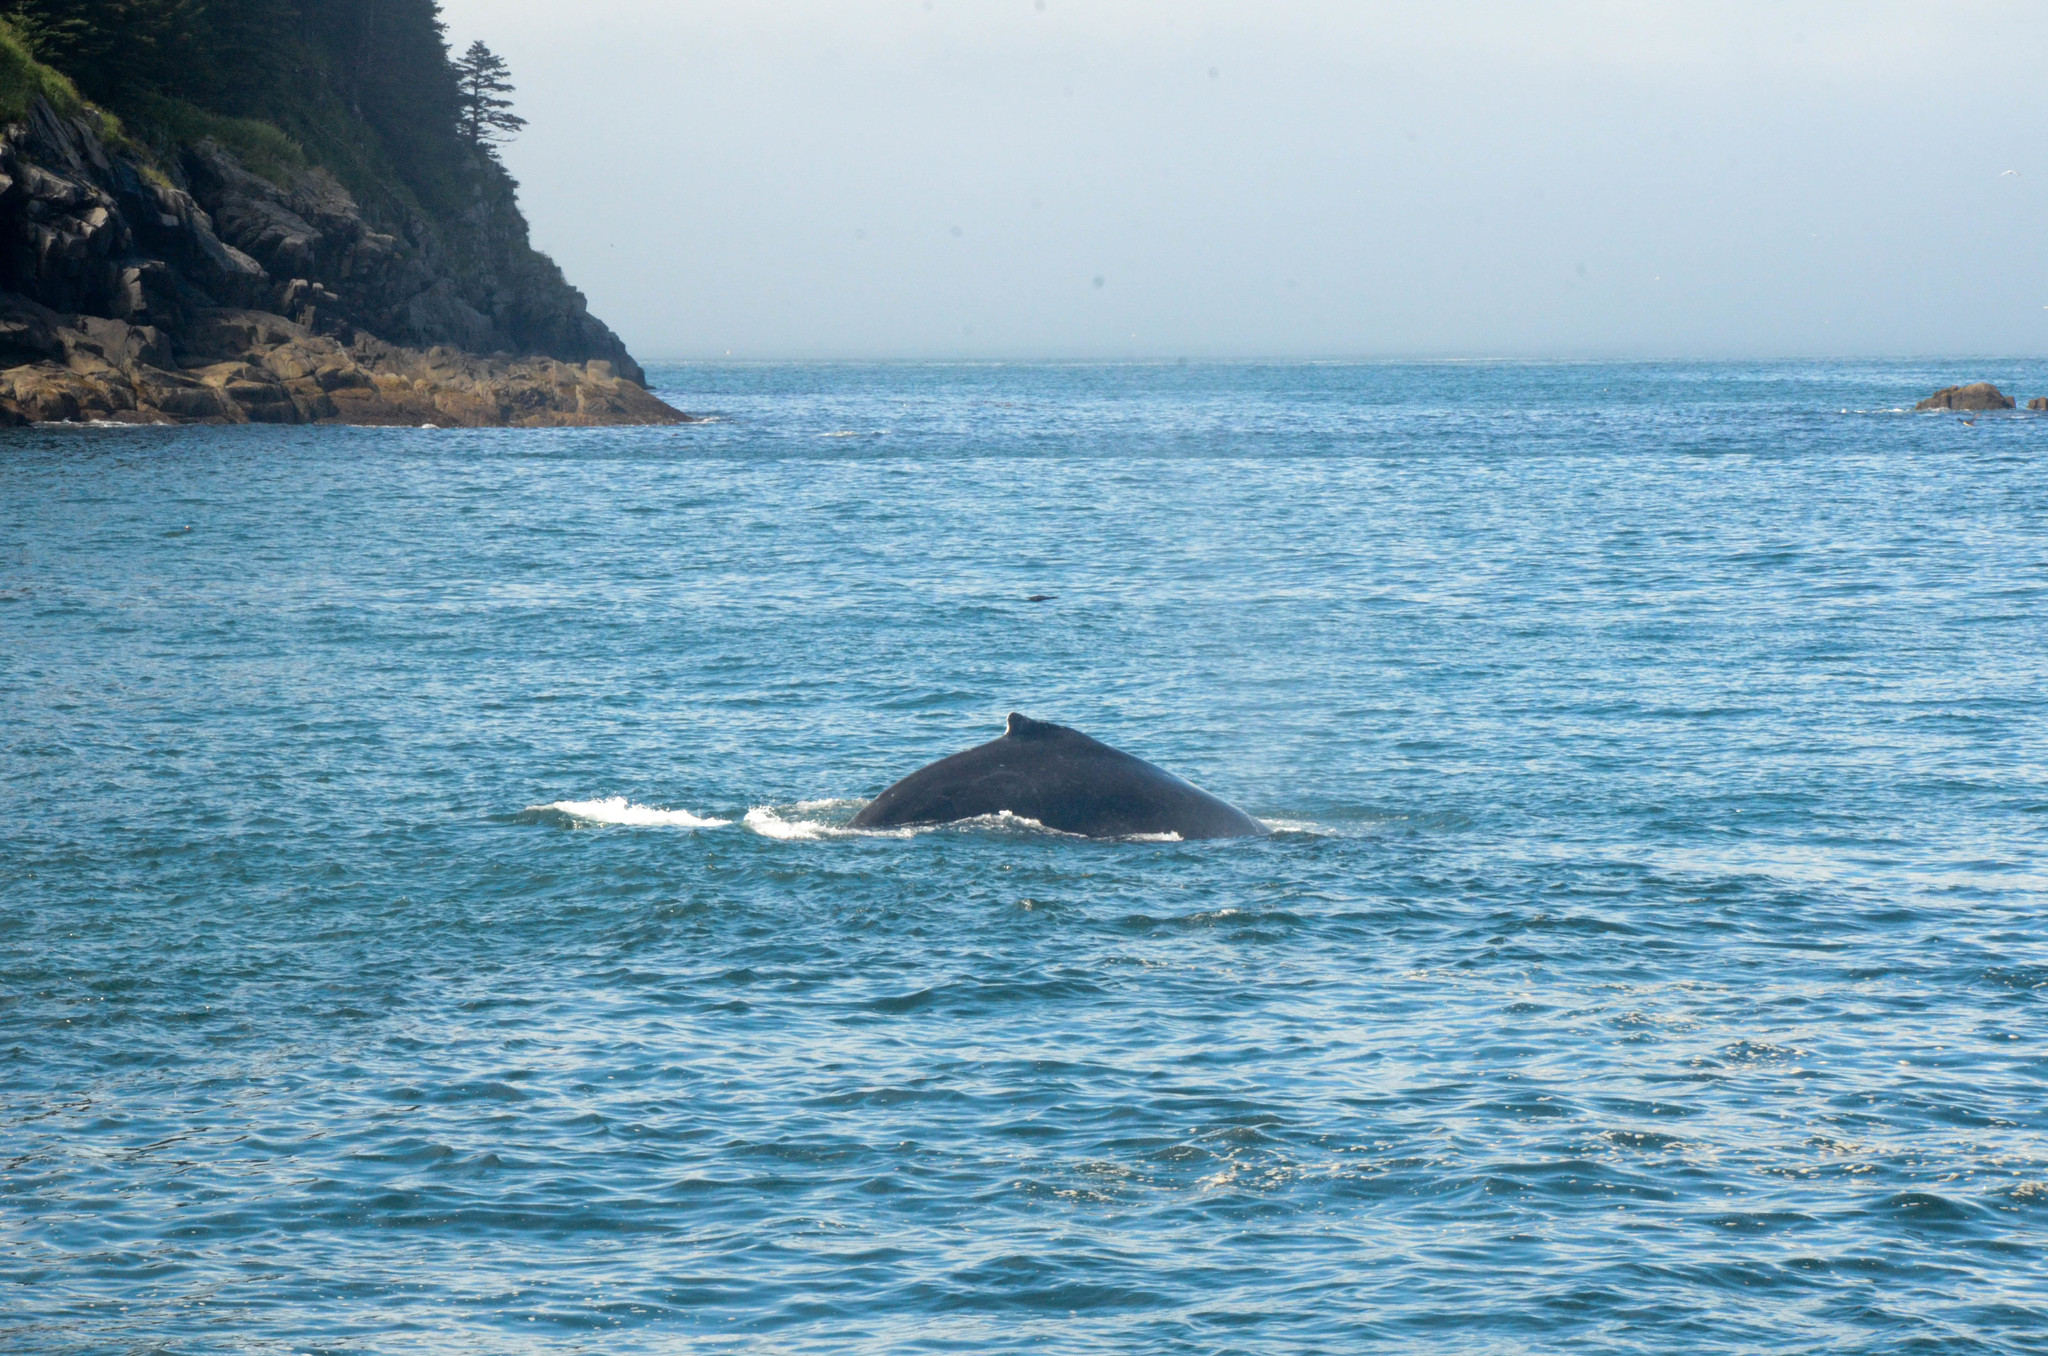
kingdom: Animalia
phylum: Chordata
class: Mammalia
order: Cetacea
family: Balaenopteridae
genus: Megaptera
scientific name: Megaptera novaeangliae
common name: Humpback whale
